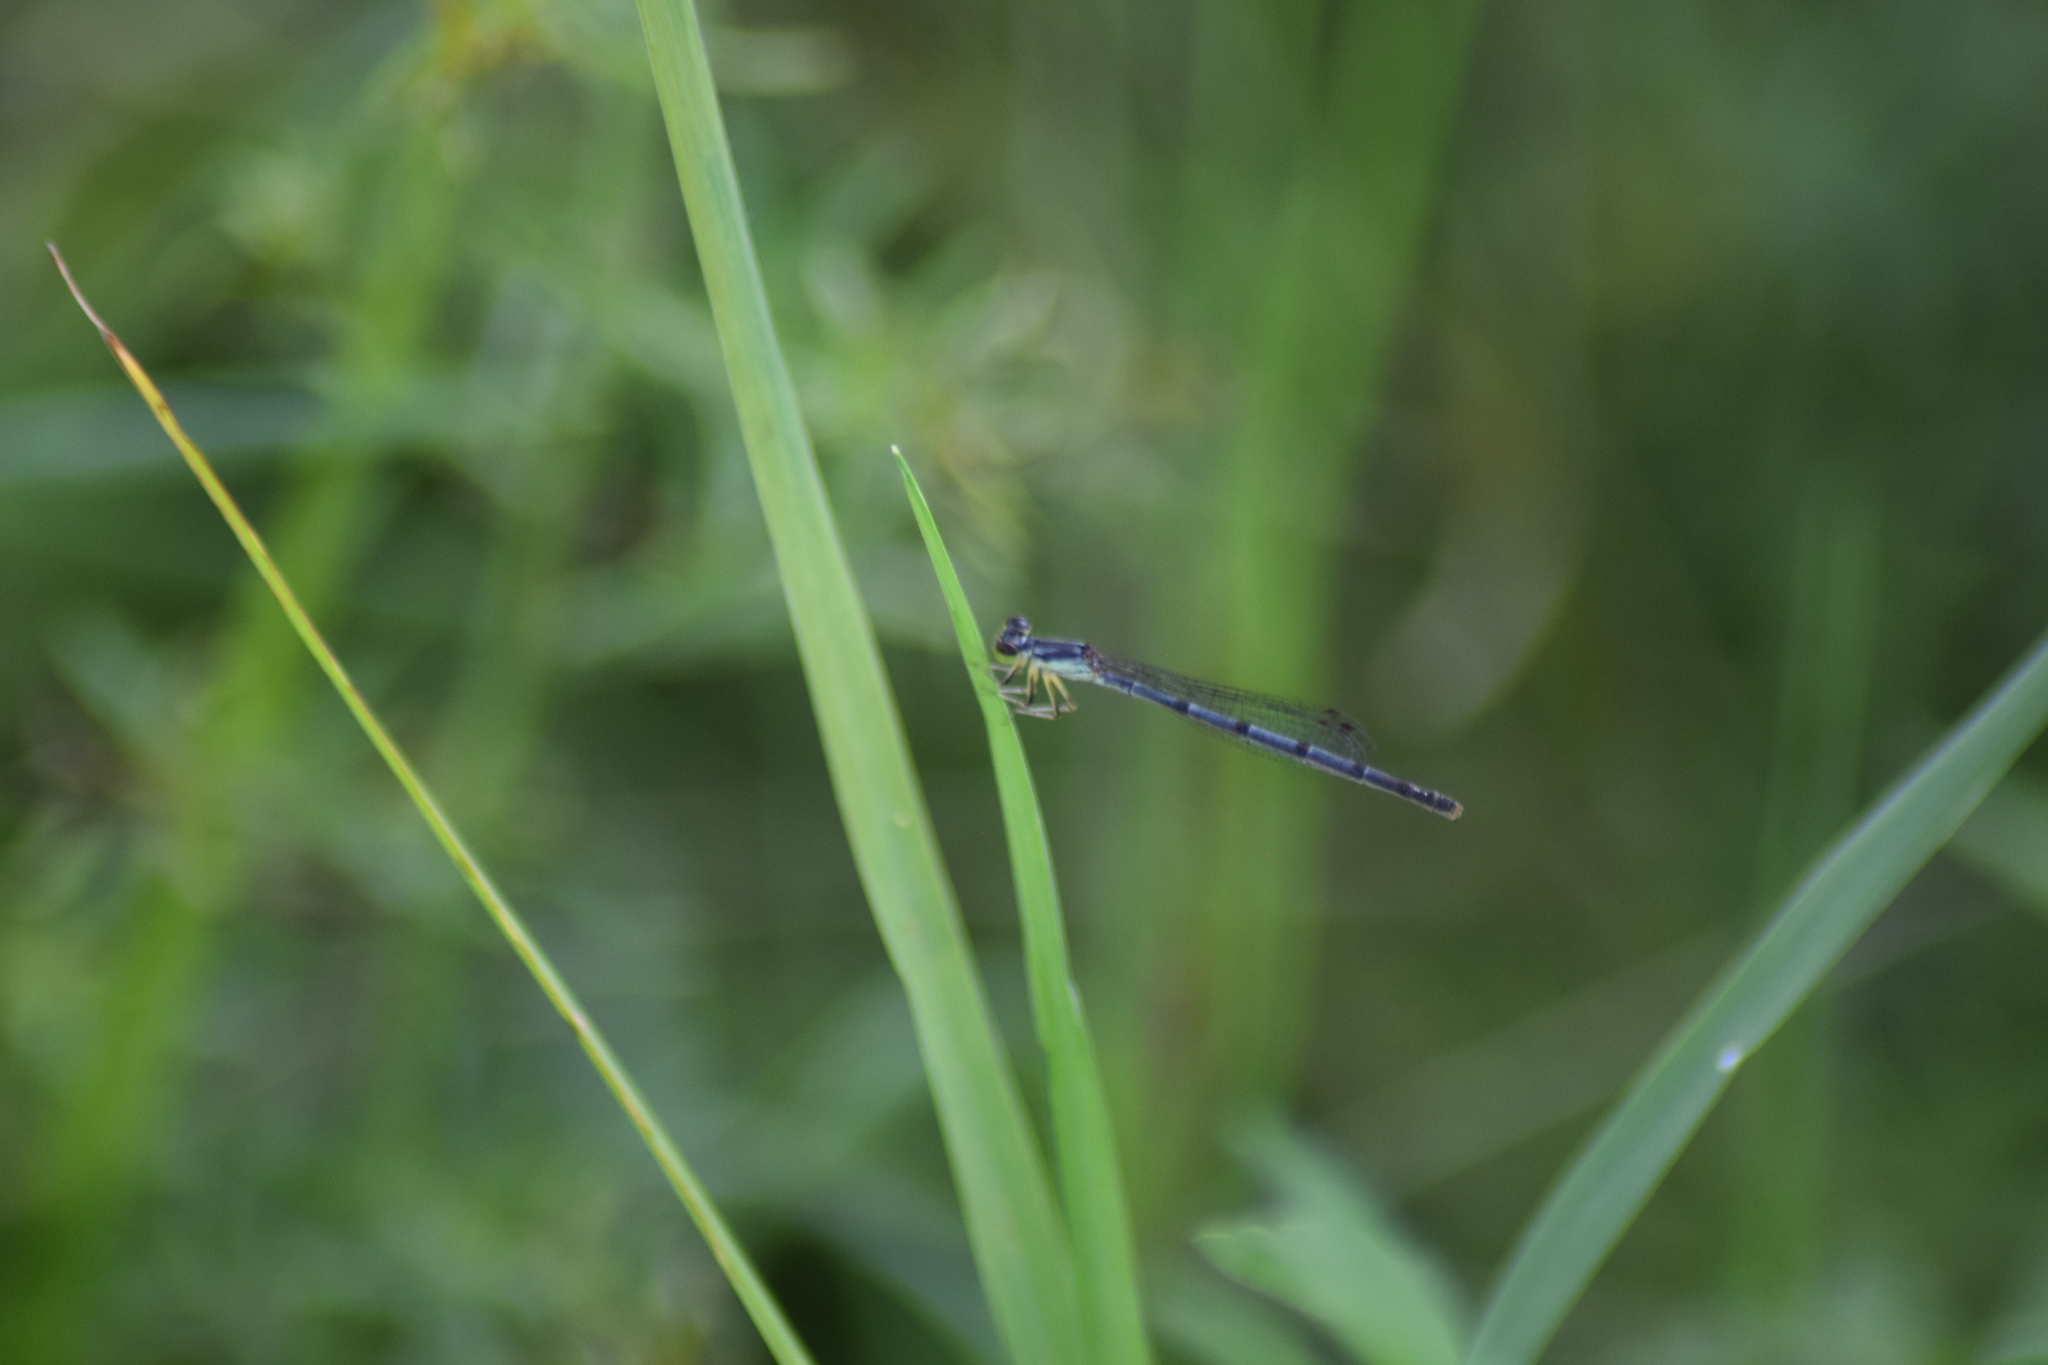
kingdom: Animalia
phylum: Arthropoda
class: Insecta
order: Odonata
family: Coenagrionidae
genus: Ischnura
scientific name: Ischnura posita
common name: Fragile forktail
